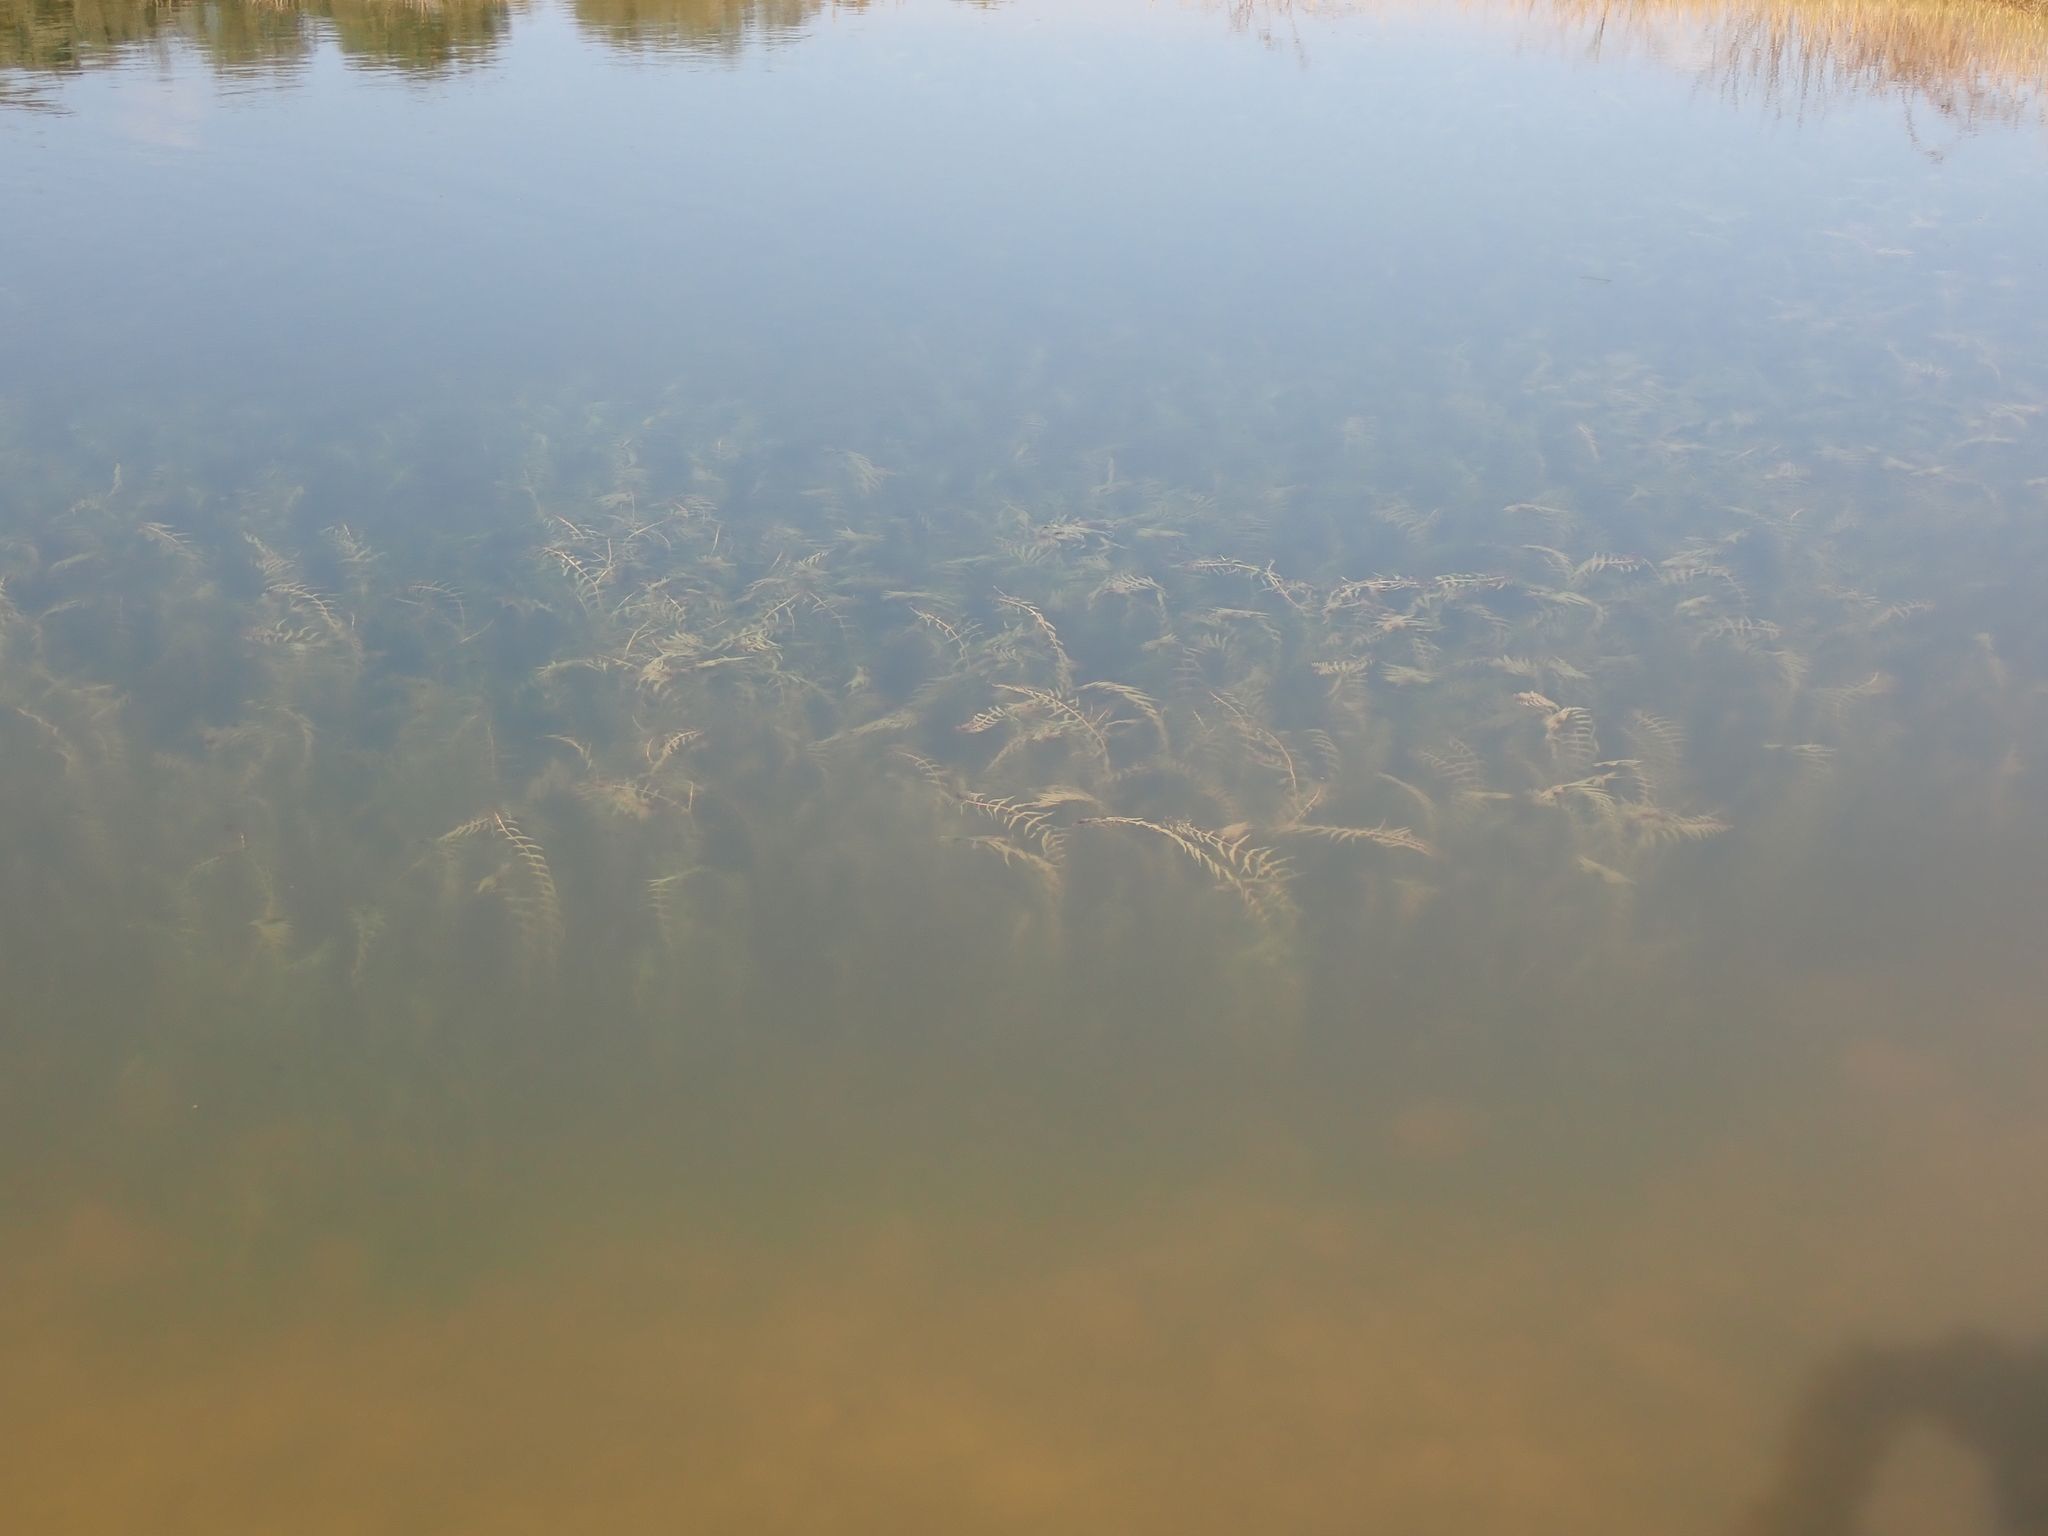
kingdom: Plantae
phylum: Tracheophyta
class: Liliopsida
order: Alismatales
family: Potamogetonaceae
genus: Groenlandia
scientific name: Groenlandia densa
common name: Opposite-leaved pondweed
